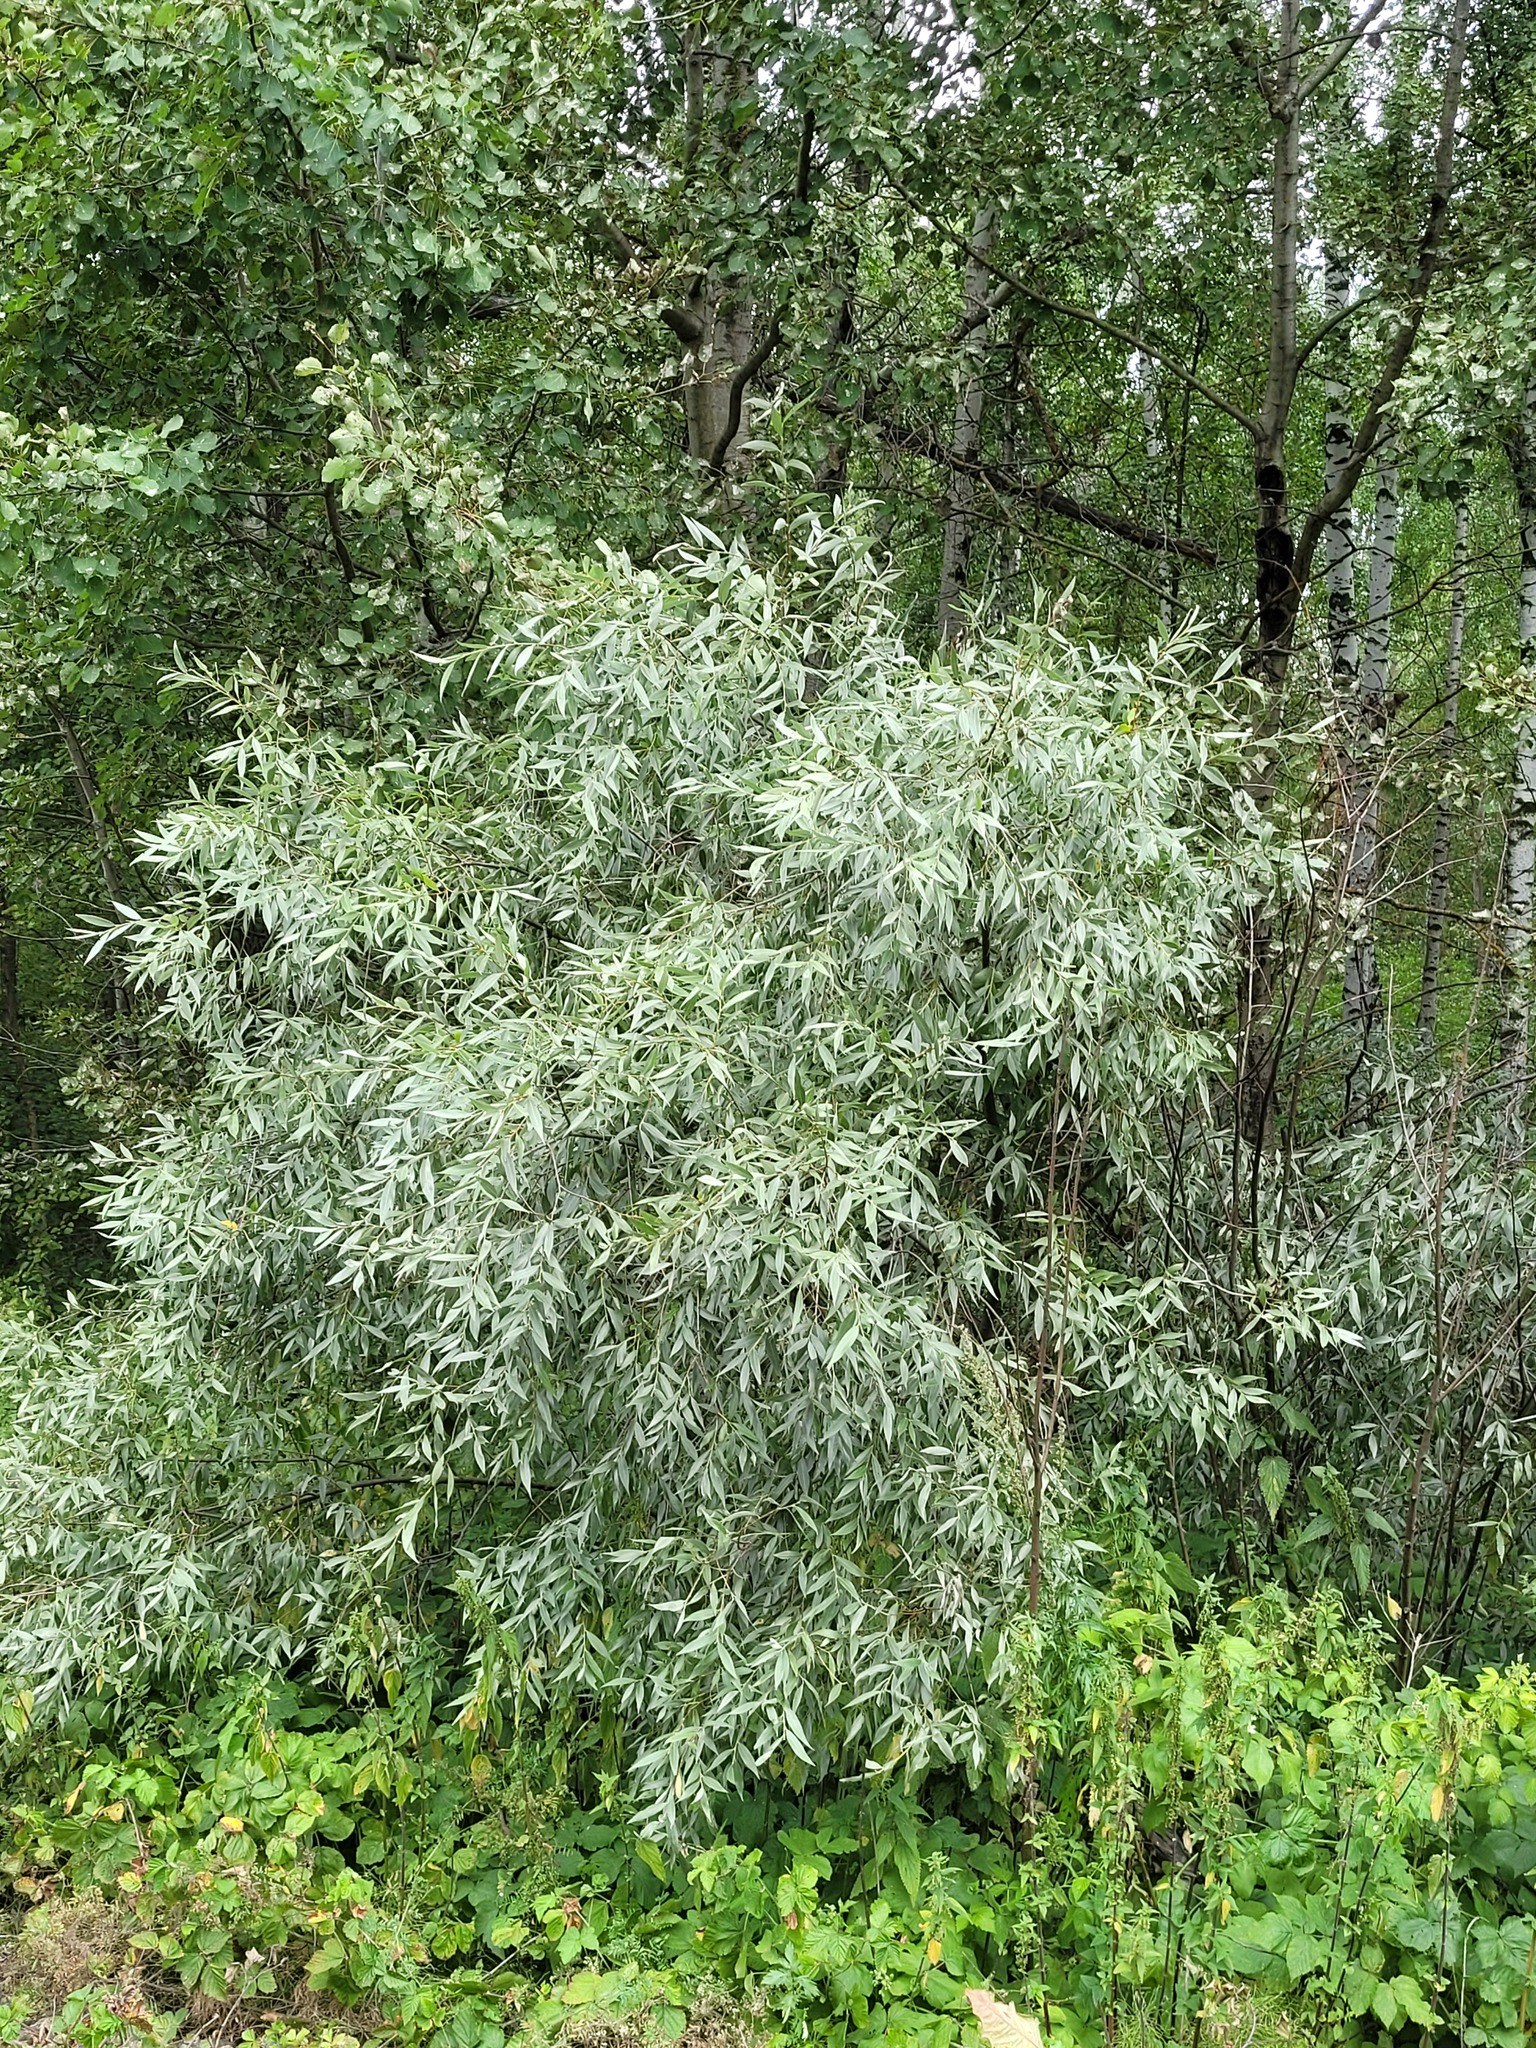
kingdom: Plantae
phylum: Tracheophyta
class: Magnoliopsida
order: Malpighiales
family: Salicaceae
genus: Salix
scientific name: Salix alba
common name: White willow
